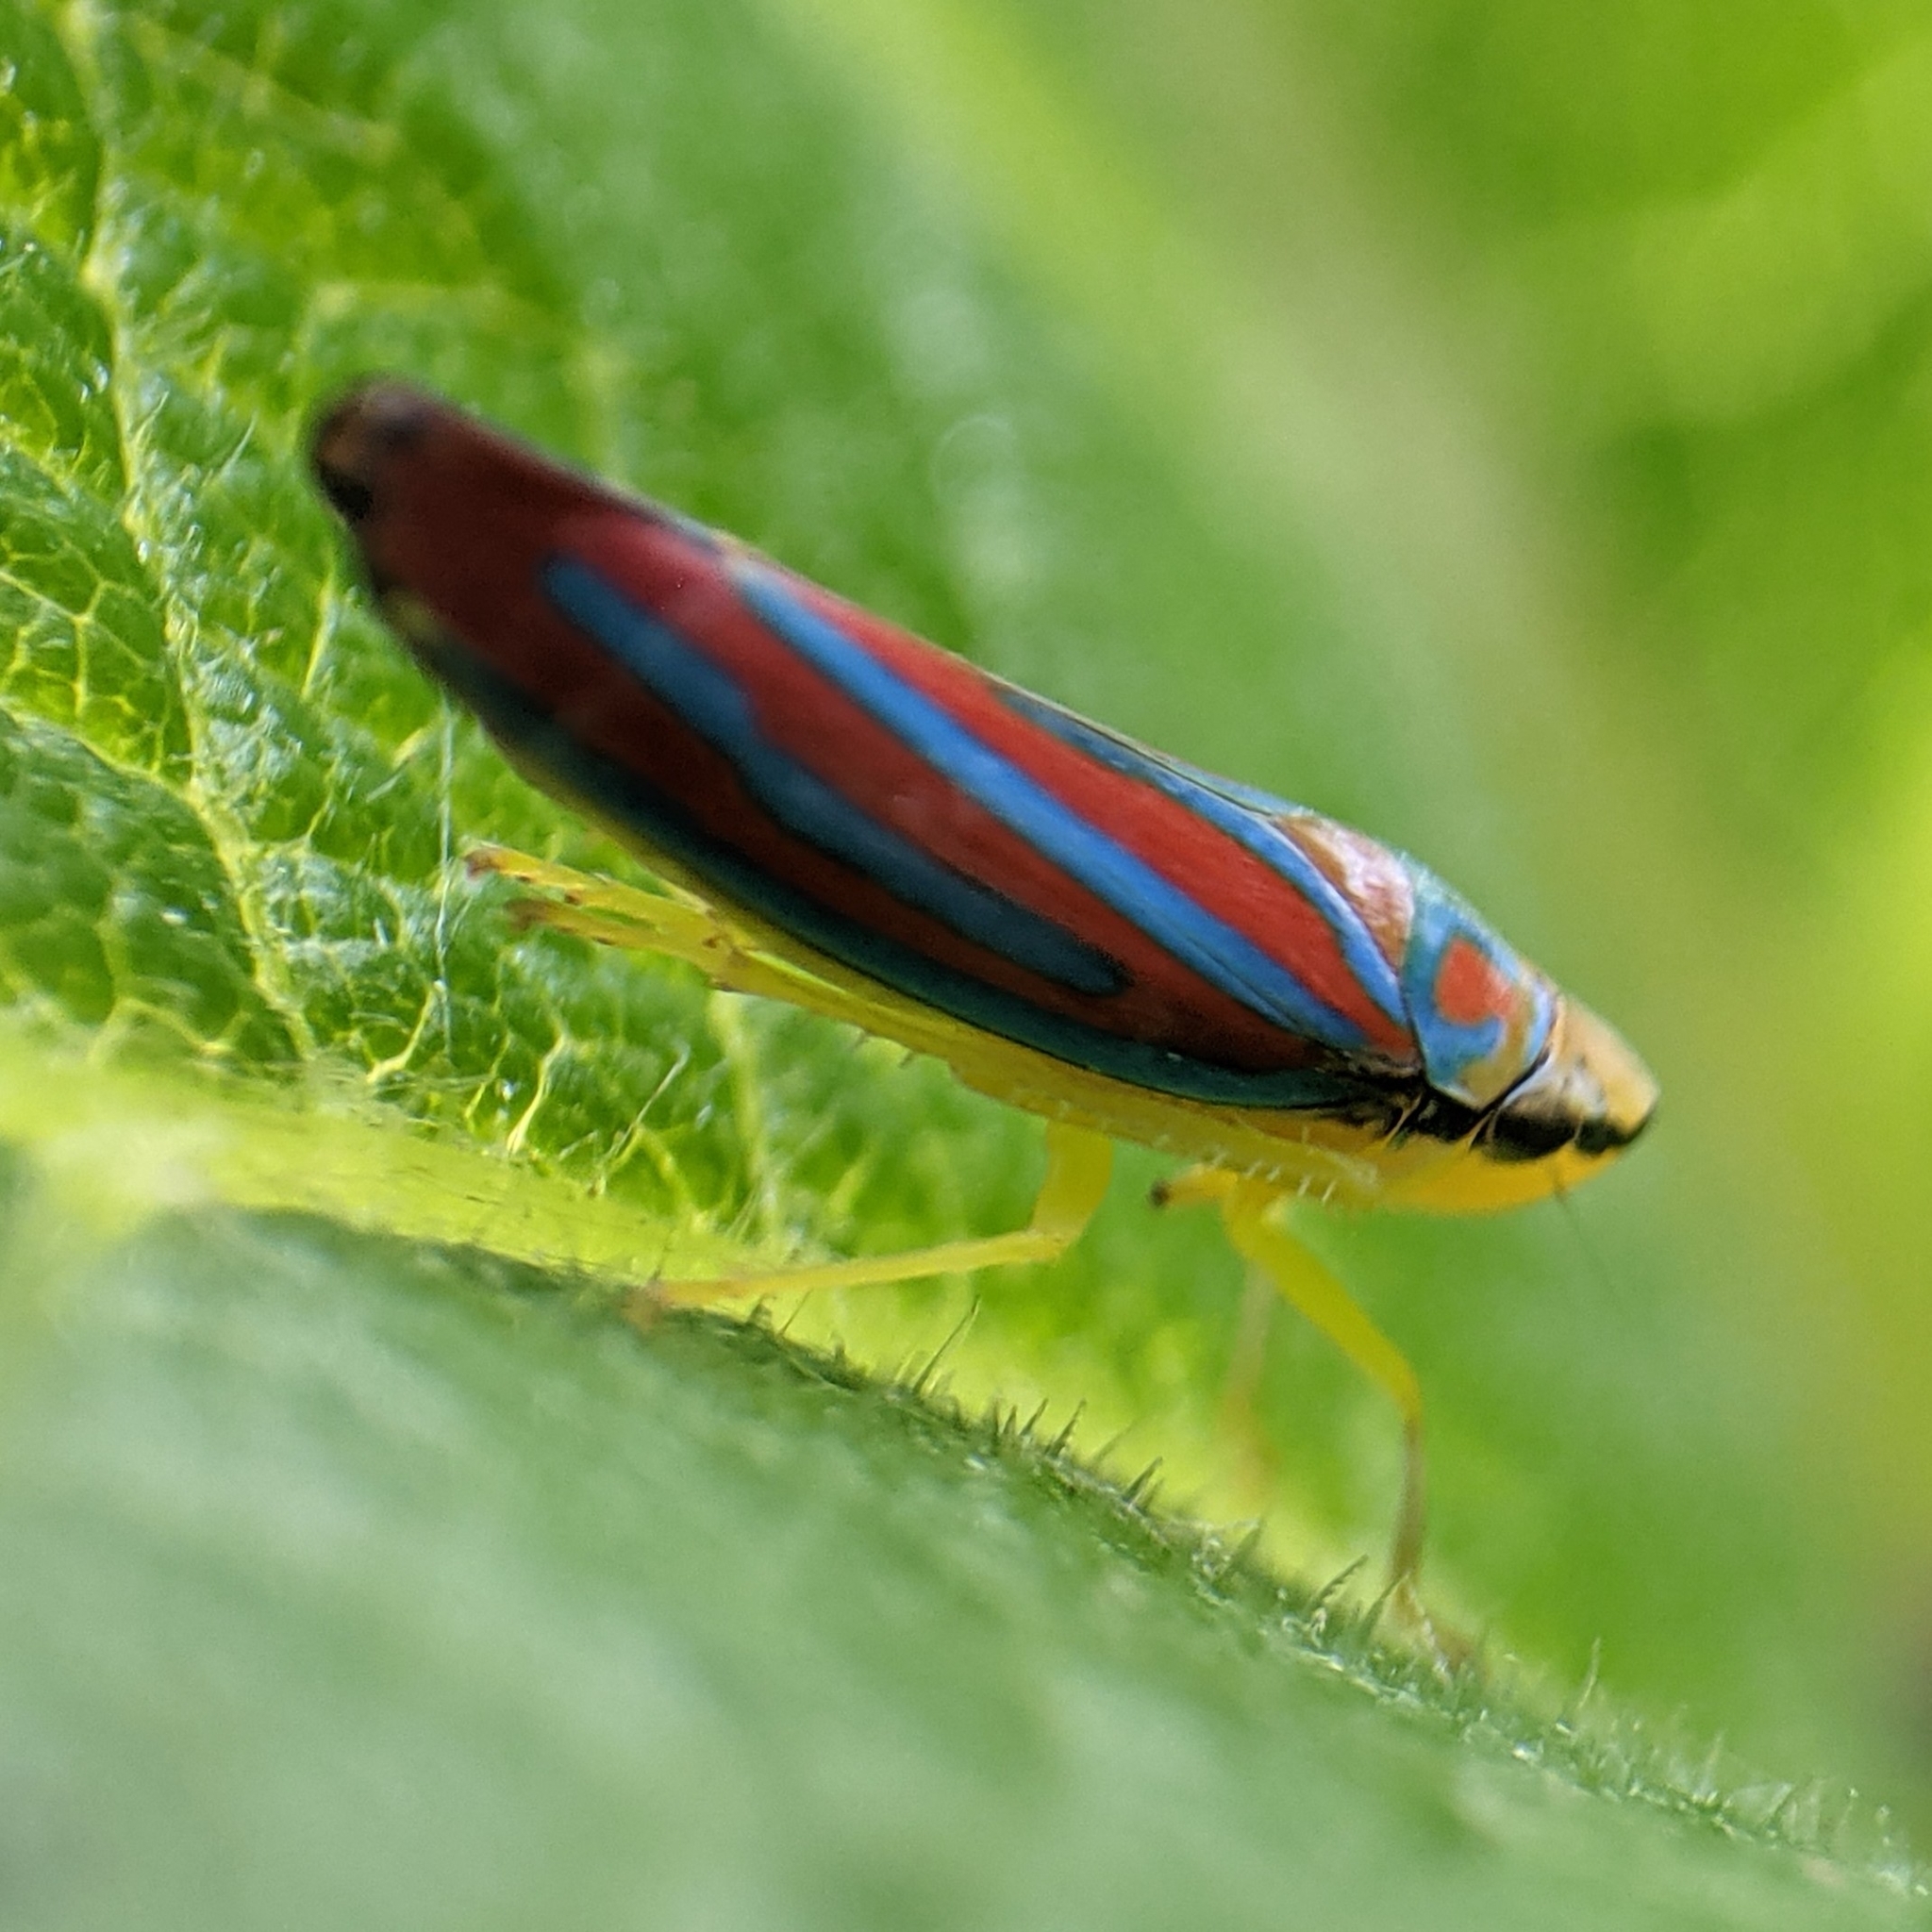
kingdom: Animalia
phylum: Arthropoda
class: Insecta
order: Hemiptera
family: Cicadellidae
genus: Graphocephala
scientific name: Graphocephala coccinea
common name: Candy-striped leafhopper
